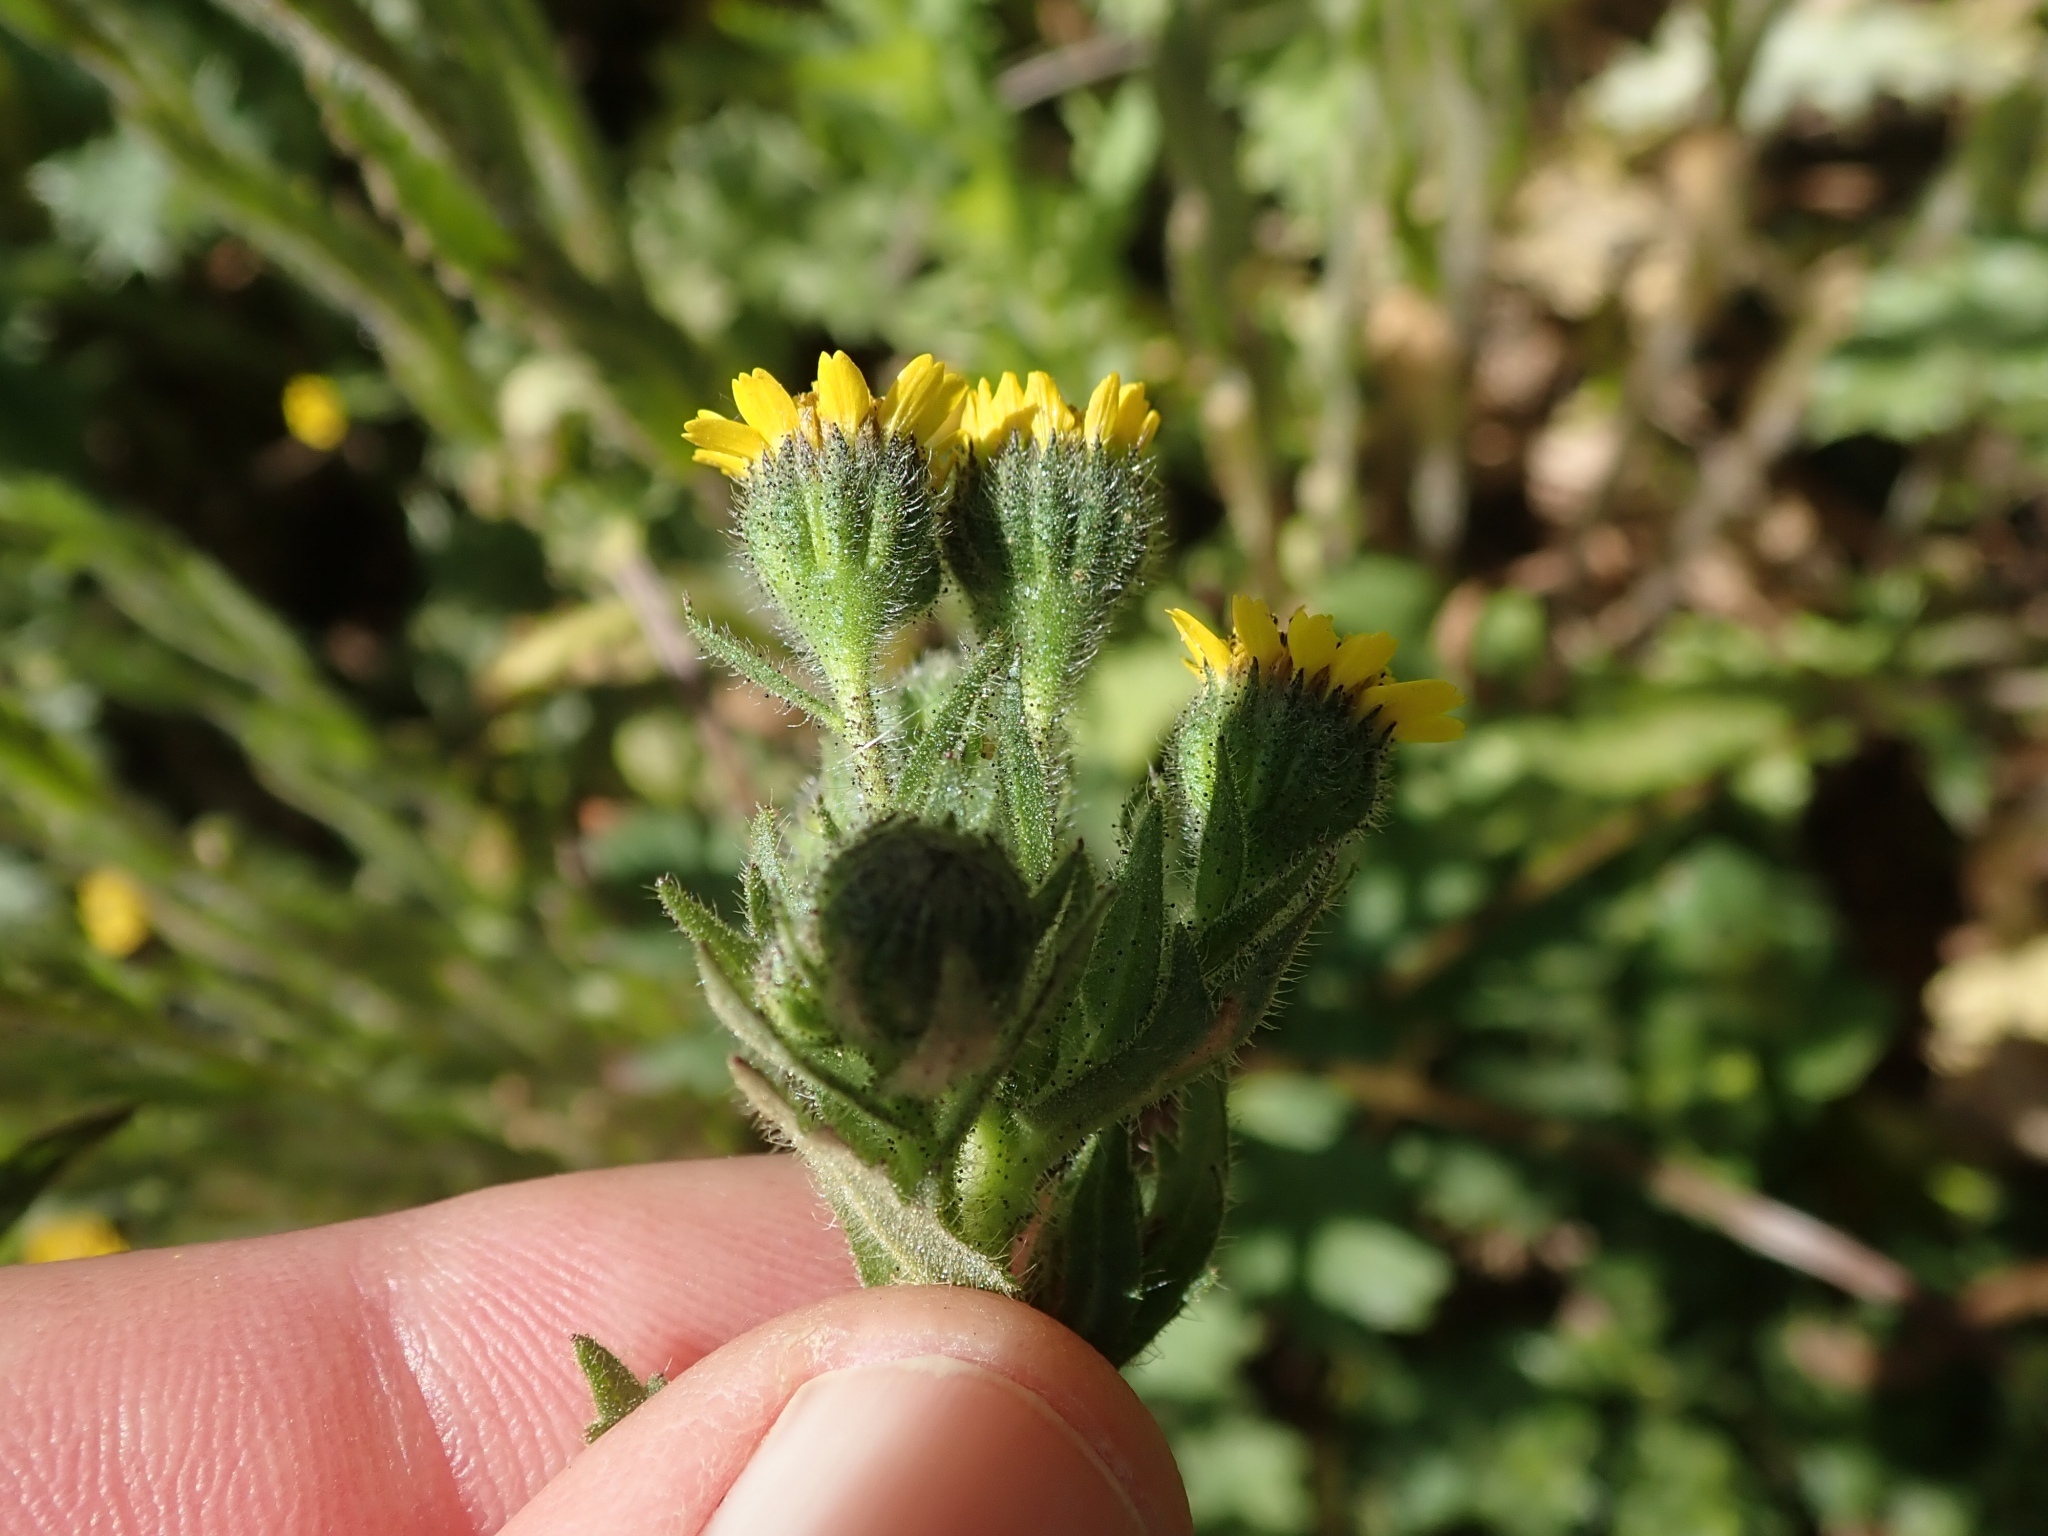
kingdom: Plantae
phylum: Tracheophyta
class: Magnoliopsida
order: Asterales
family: Asteraceae
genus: Layia
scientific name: Layia hieracioides
